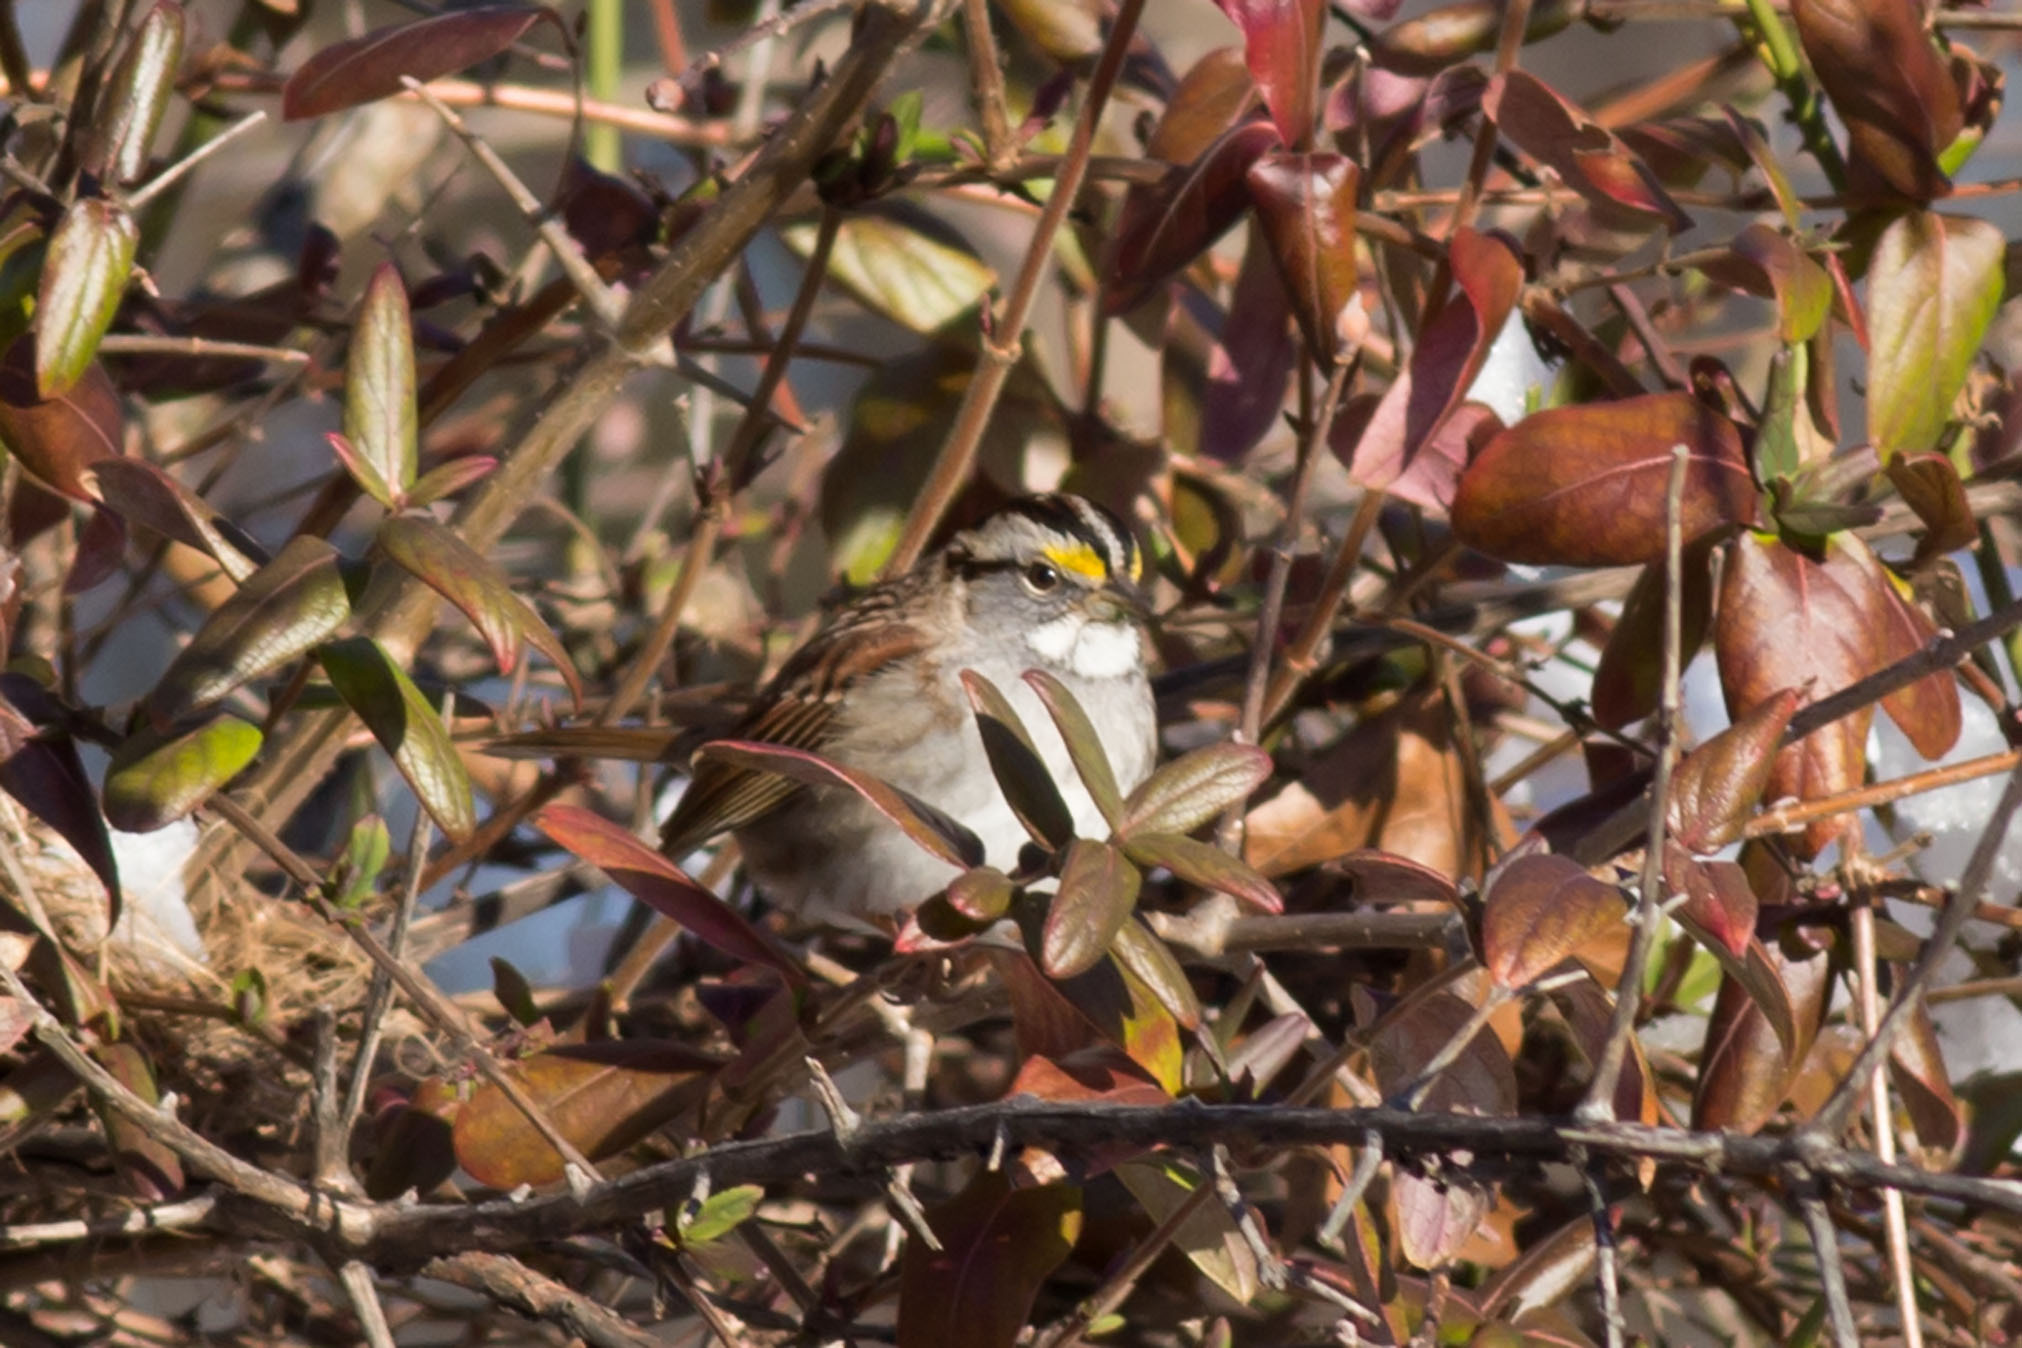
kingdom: Animalia
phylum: Chordata
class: Aves
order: Passeriformes
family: Passerellidae
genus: Zonotrichia
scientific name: Zonotrichia albicollis
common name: White-throated sparrow
